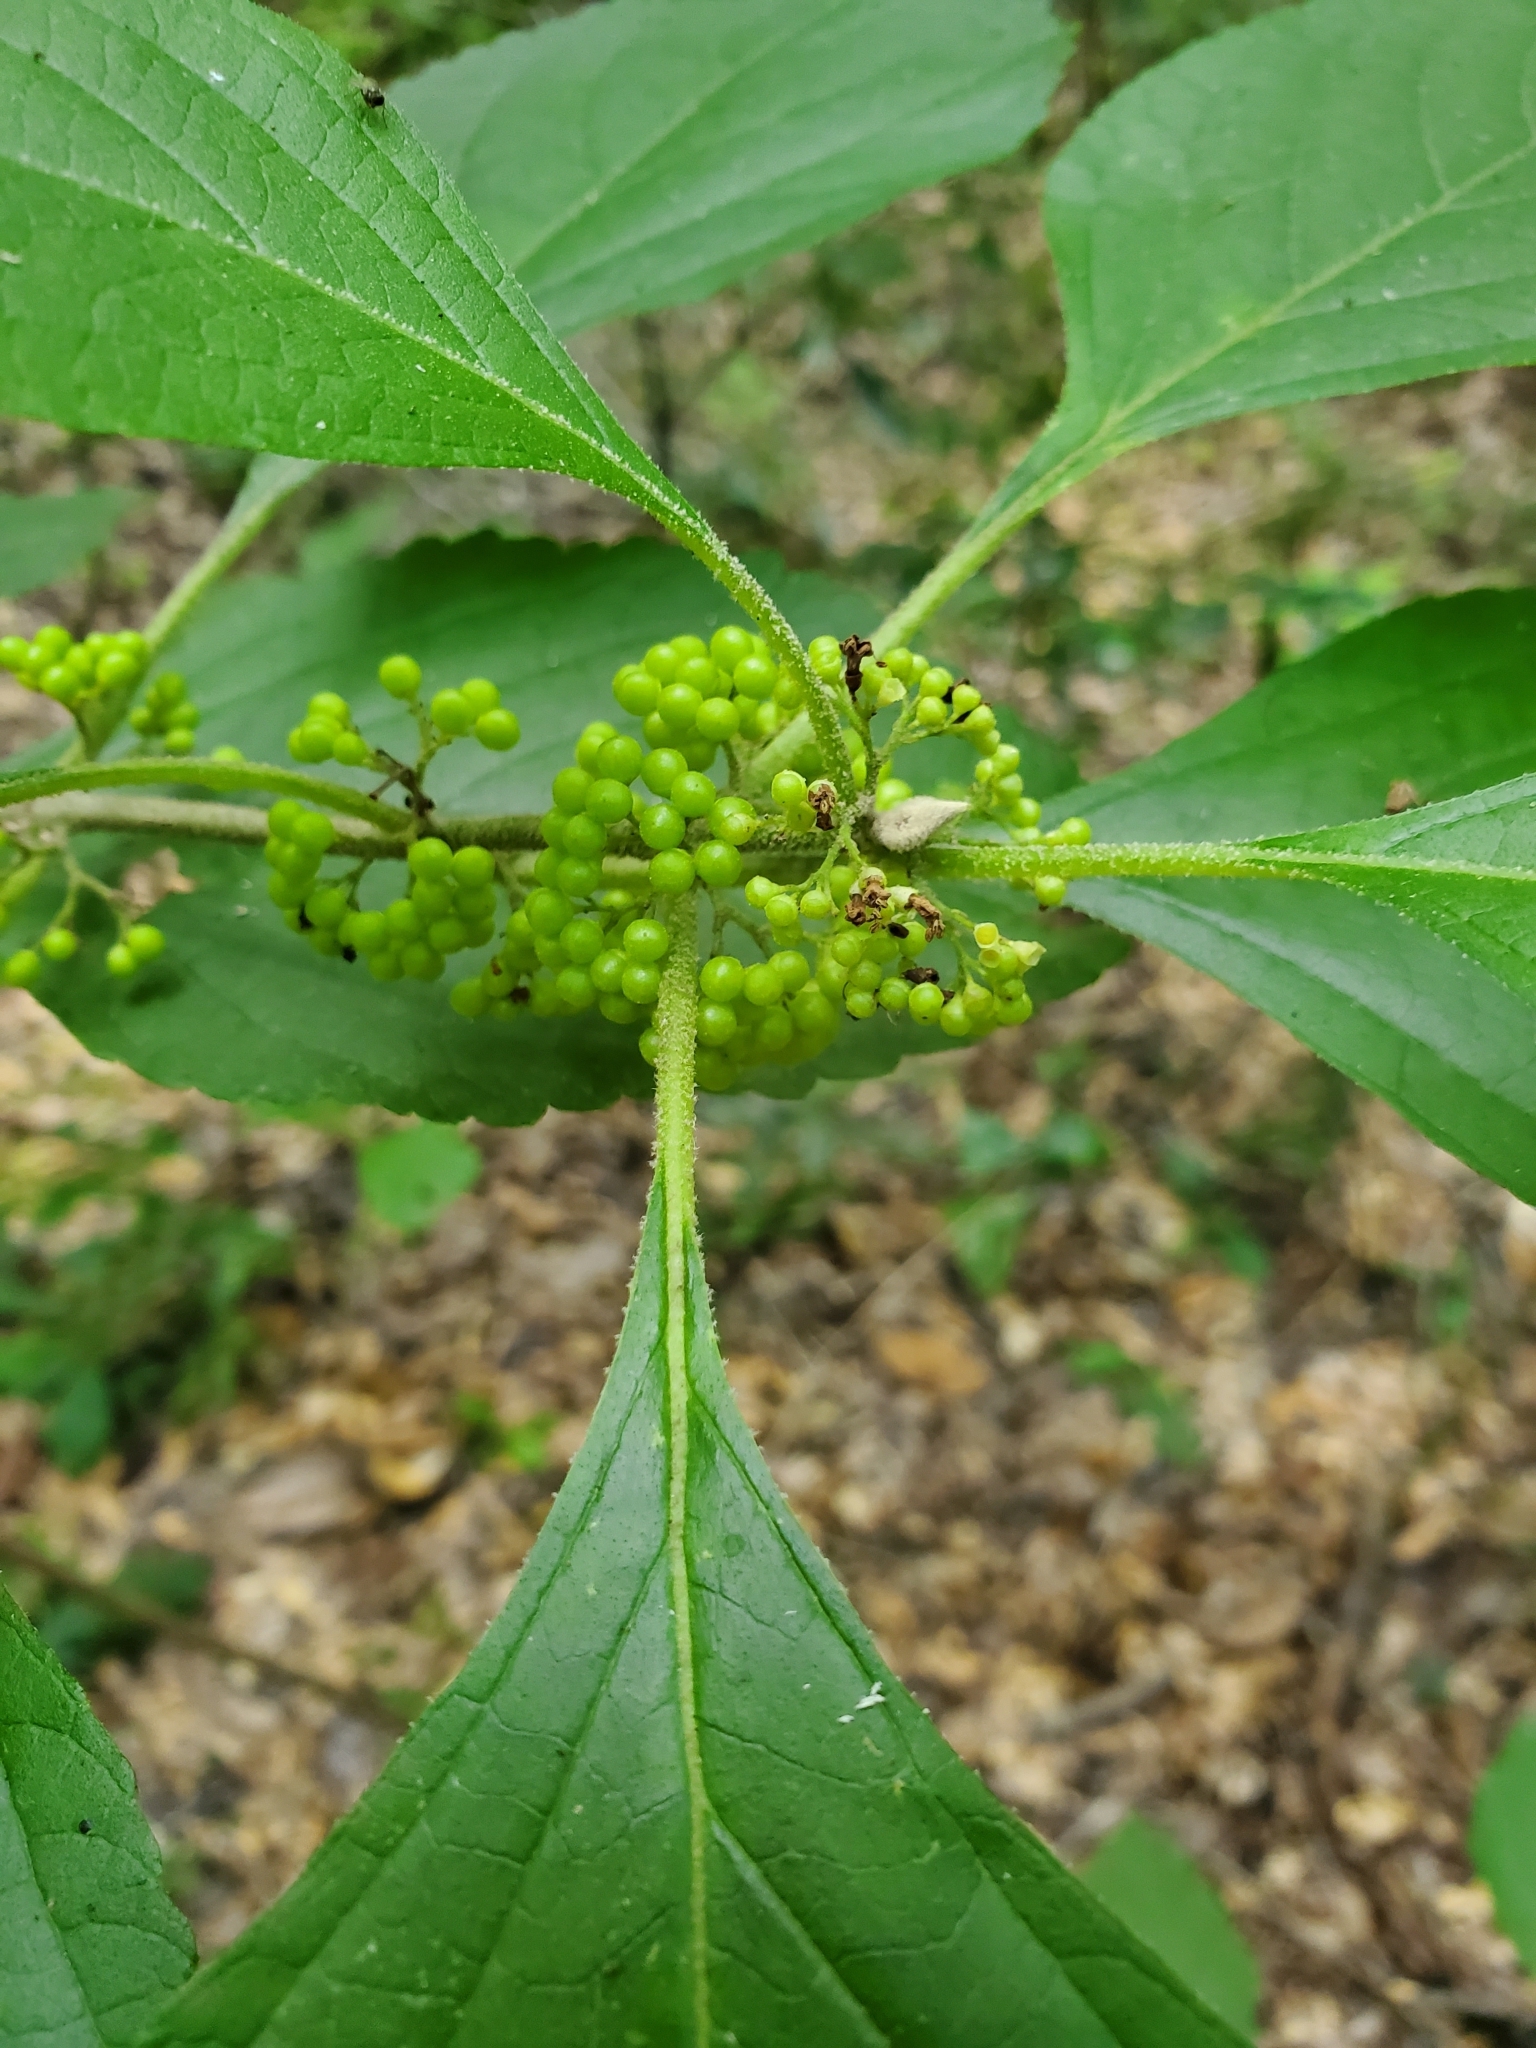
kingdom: Plantae
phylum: Tracheophyta
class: Magnoliopsida
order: Lamiales
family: Lamiaceae
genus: Callicarpa
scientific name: Callicarpa americana
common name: American beautyberry
